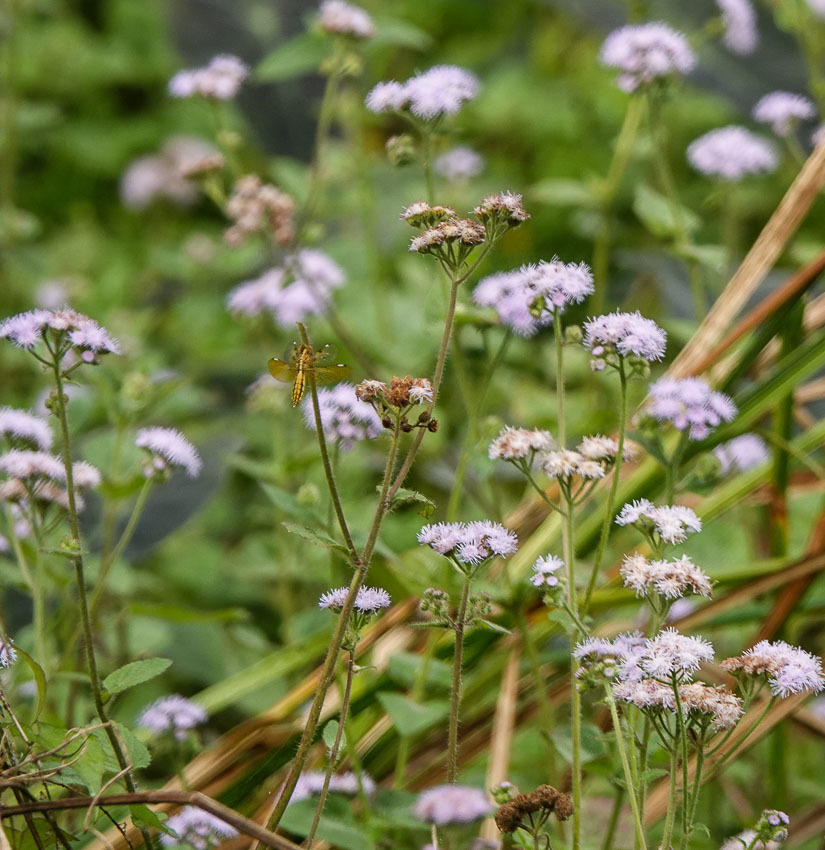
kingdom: Plantae
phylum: Tracheophyta
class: Magnoliopsida
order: Asterales
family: Asteraceae
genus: Ageratum
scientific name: Ageratum houstonianum
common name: Bluemink
